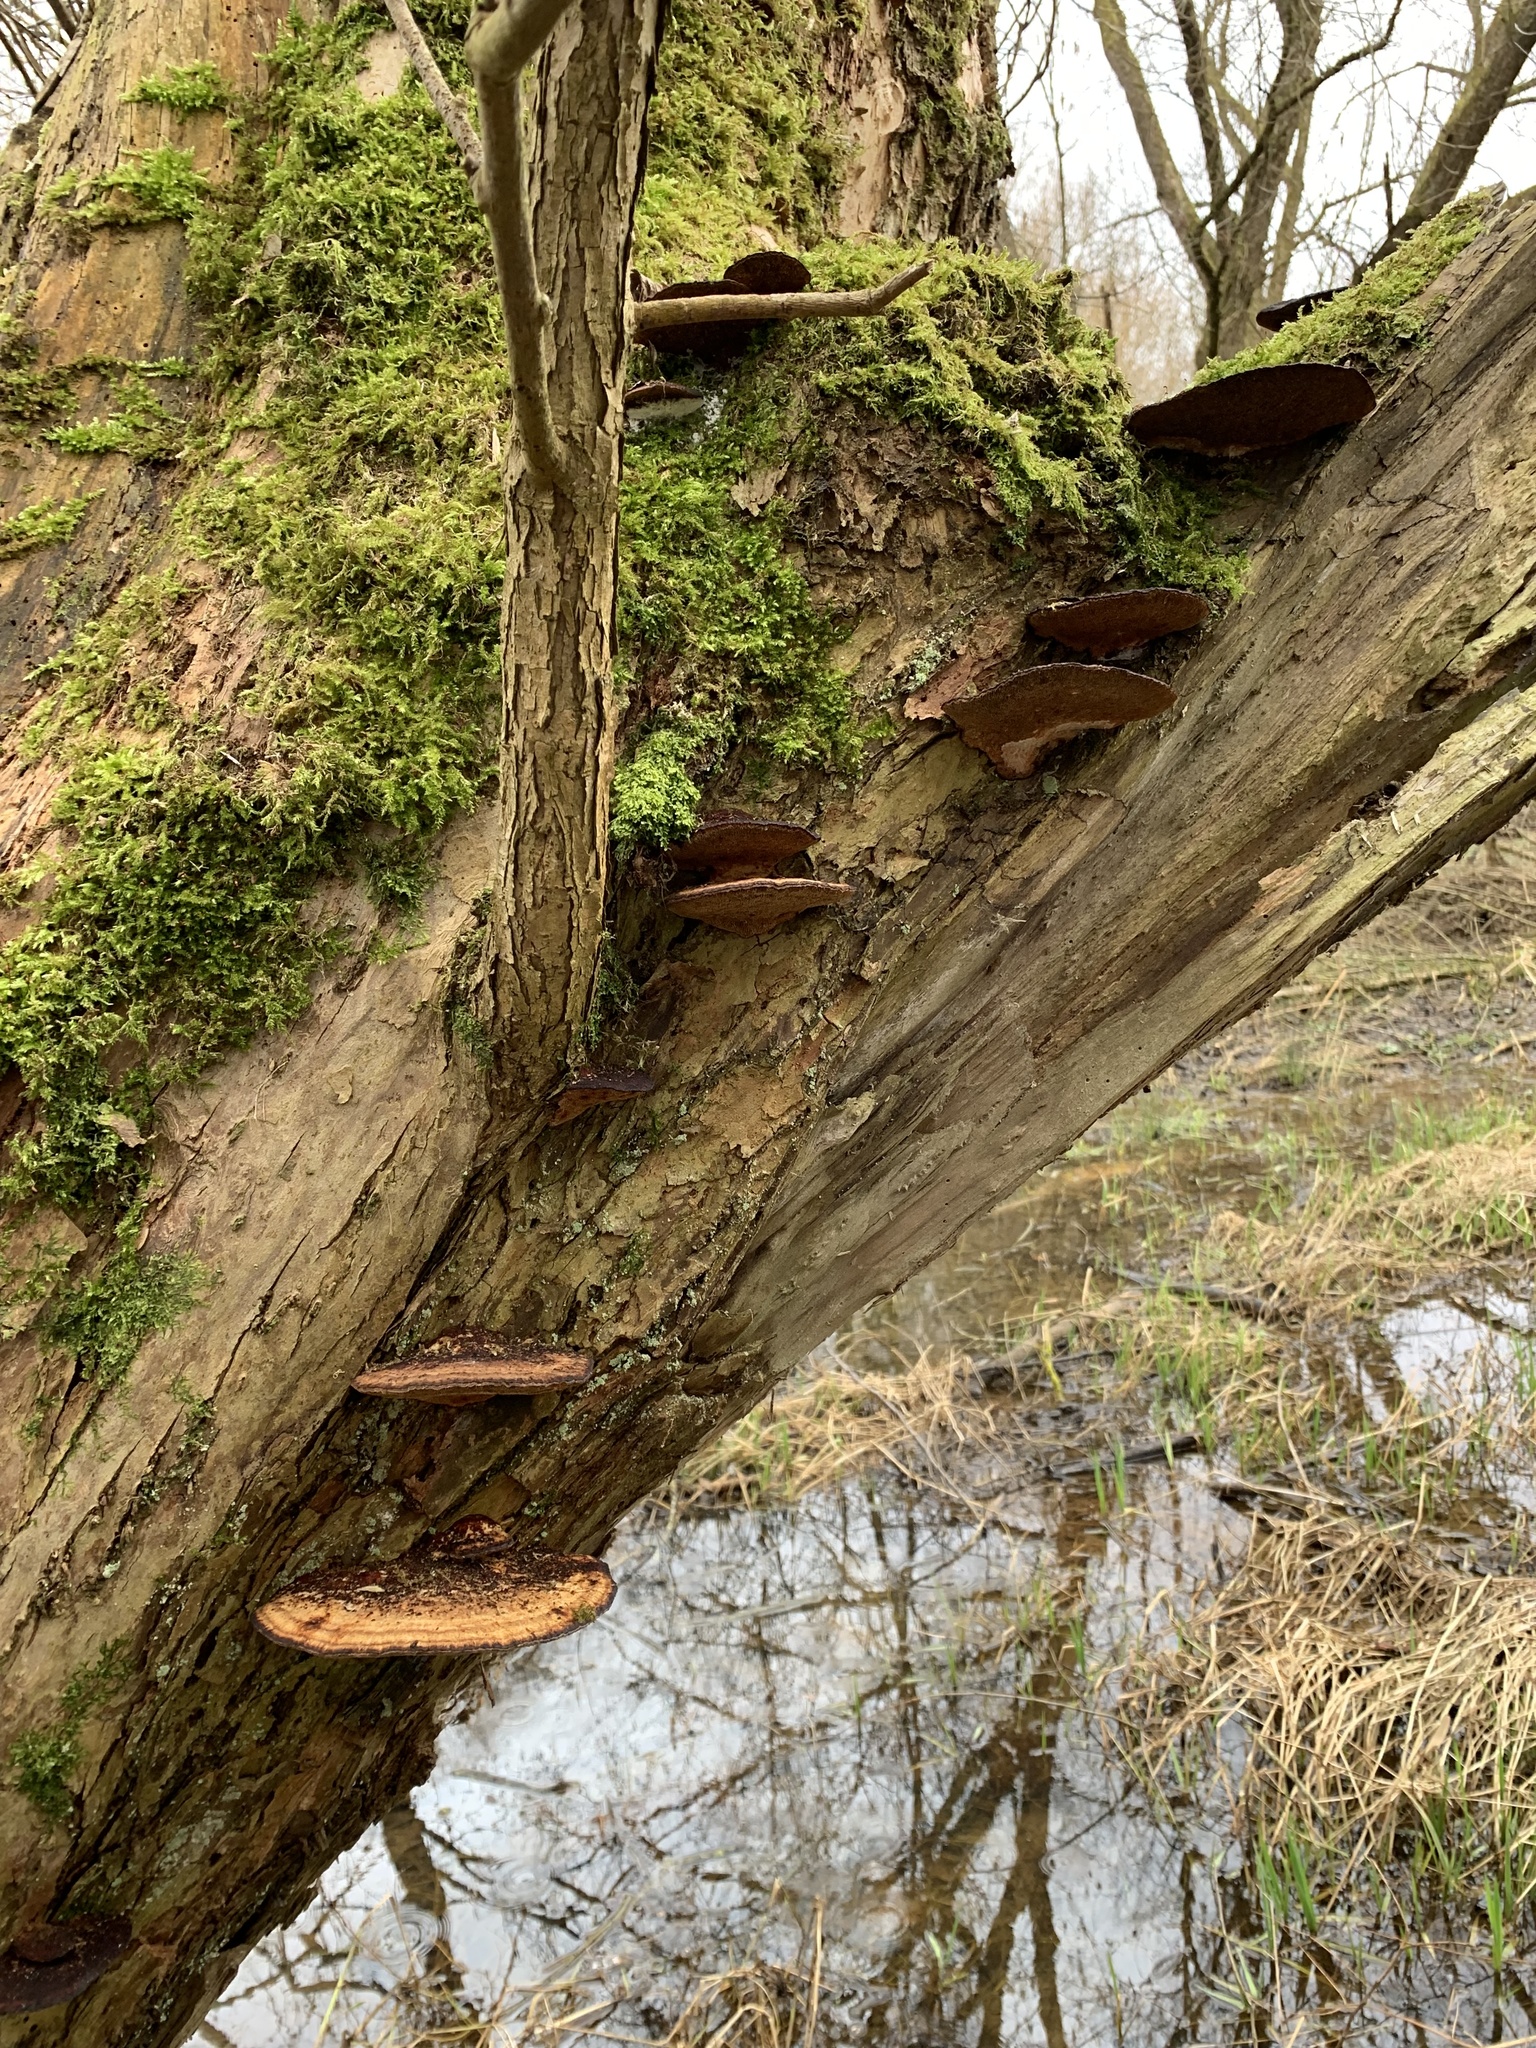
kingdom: Fungi
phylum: Basidiomycota
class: Agaricomycetes
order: Polyporales
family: Polyporaceae
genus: Daedaleopsis
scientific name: Daedaleopsis confragosa
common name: Blushing bracket
